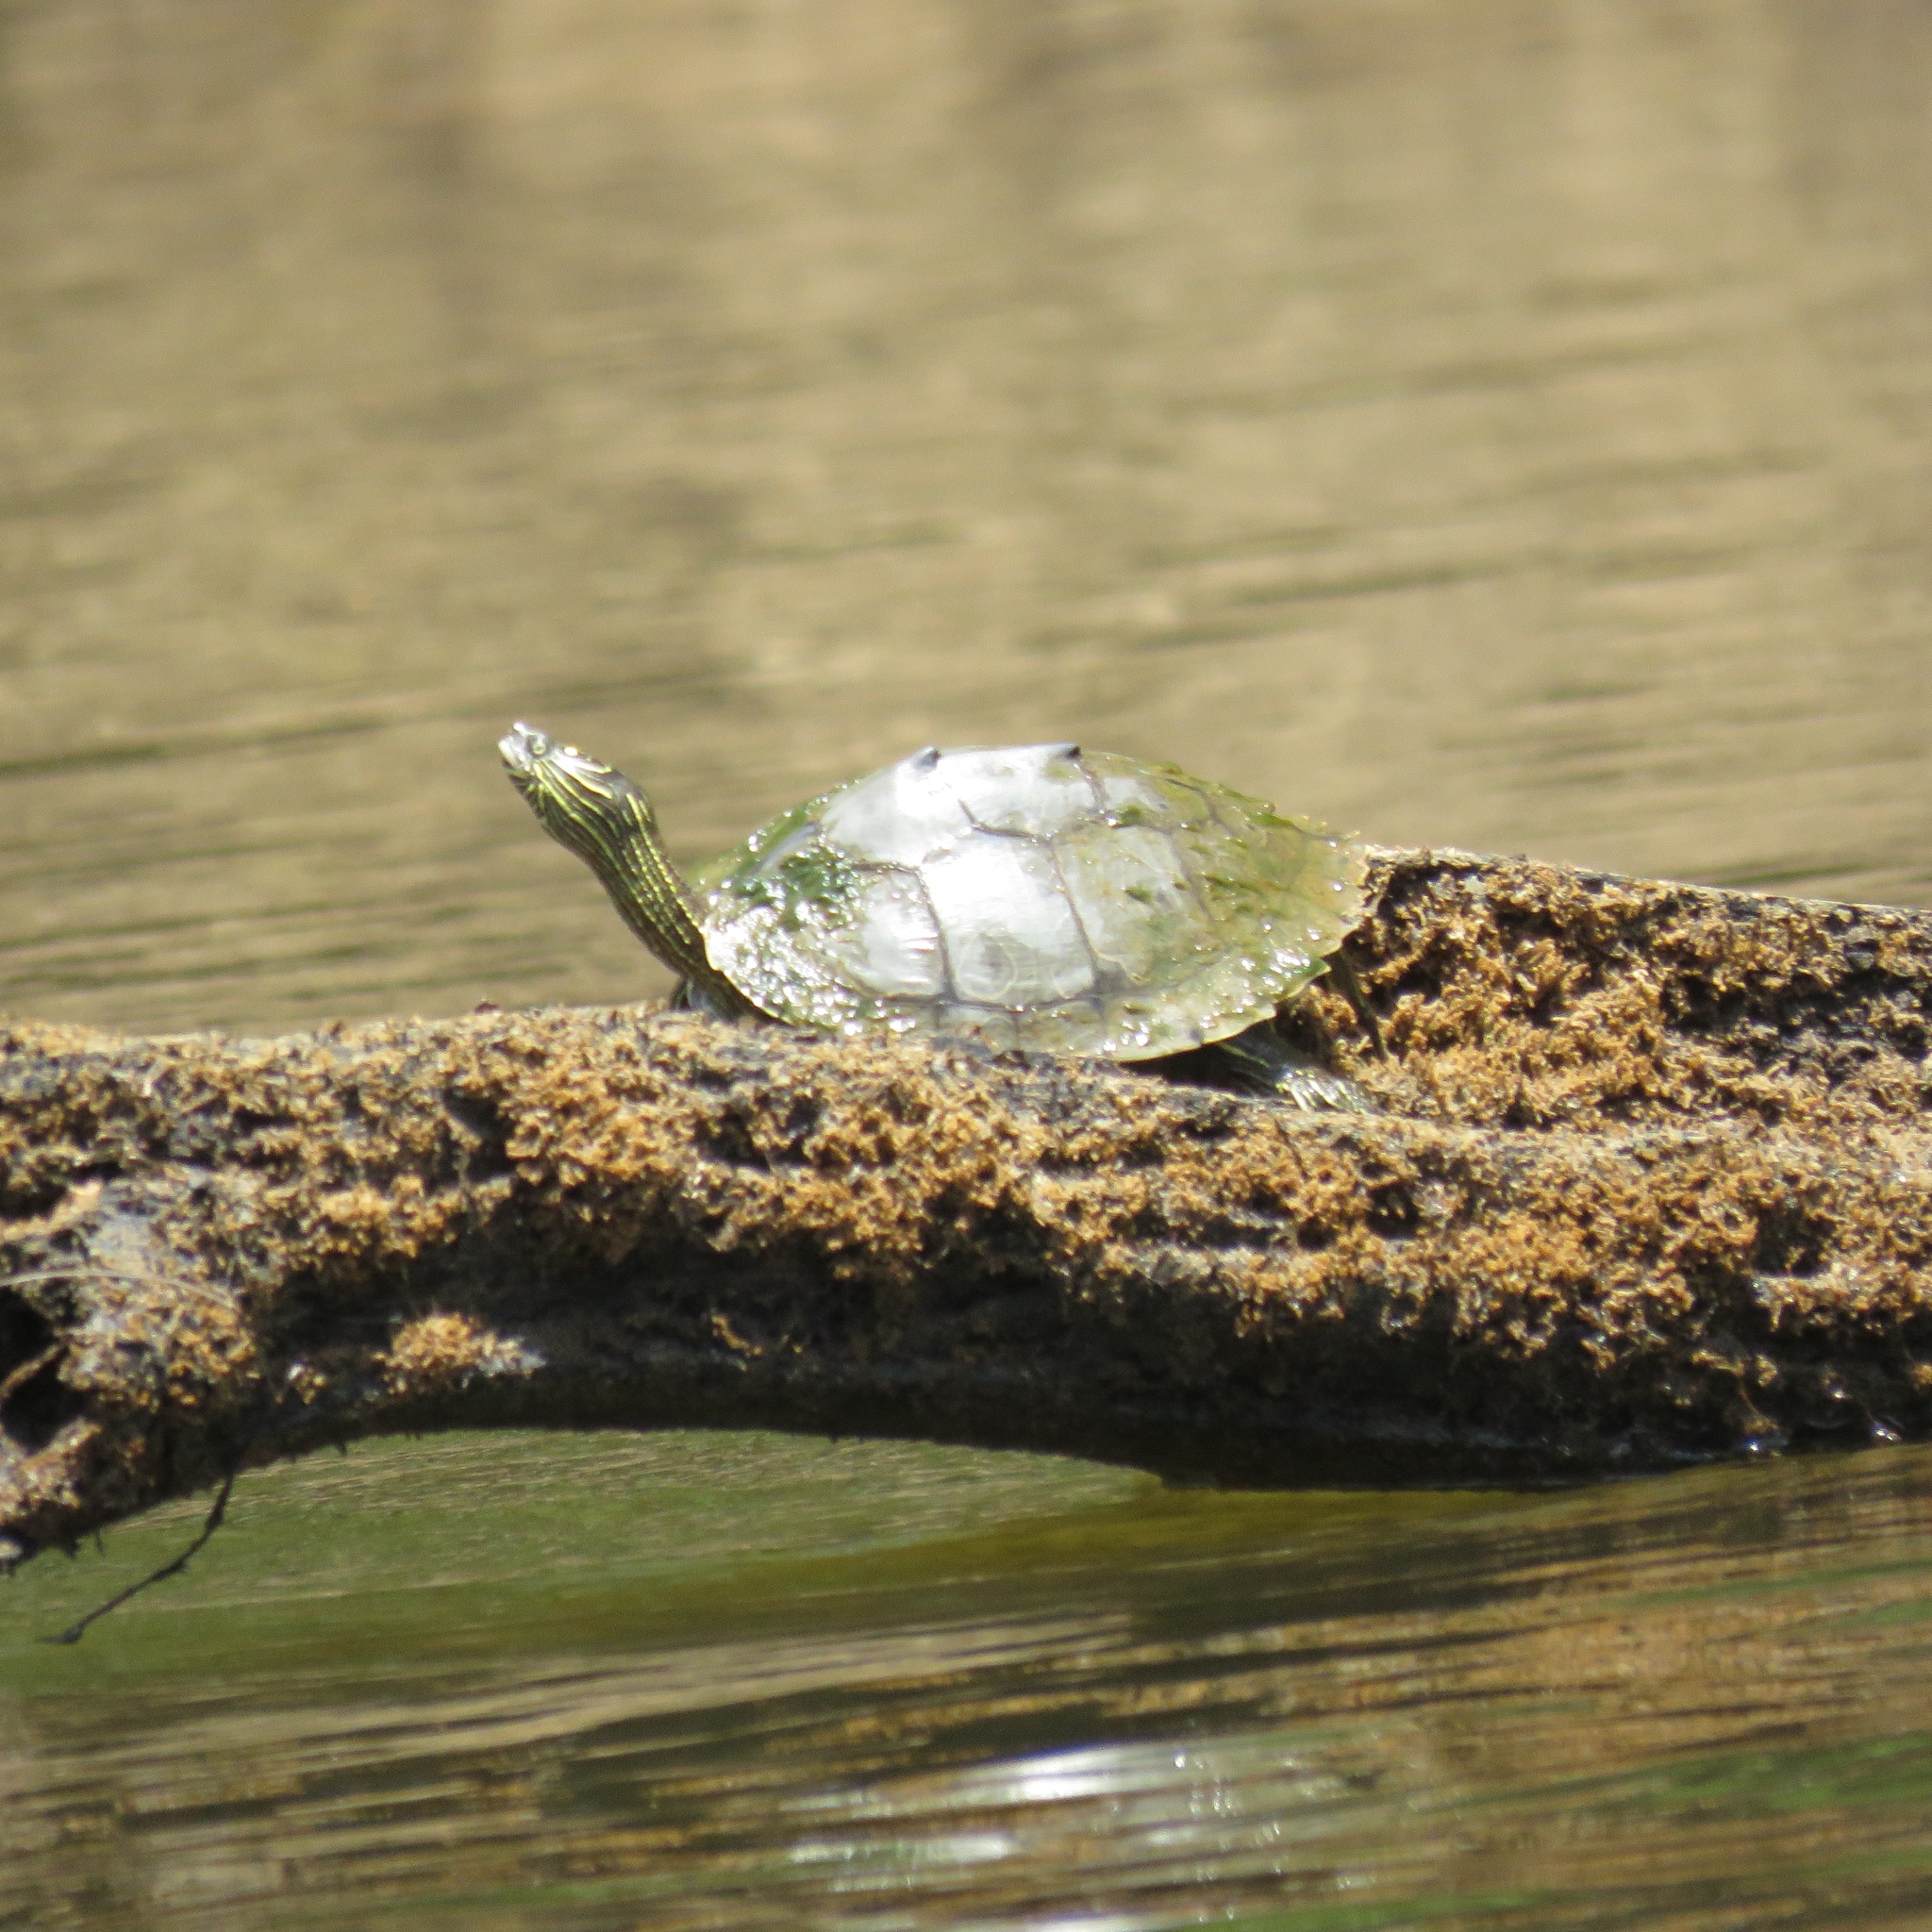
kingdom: Animalia
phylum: Chordata
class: Testudines
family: Emydidae
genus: Graptemys
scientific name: Graptemys sabinensis
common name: Sabine map turtle
